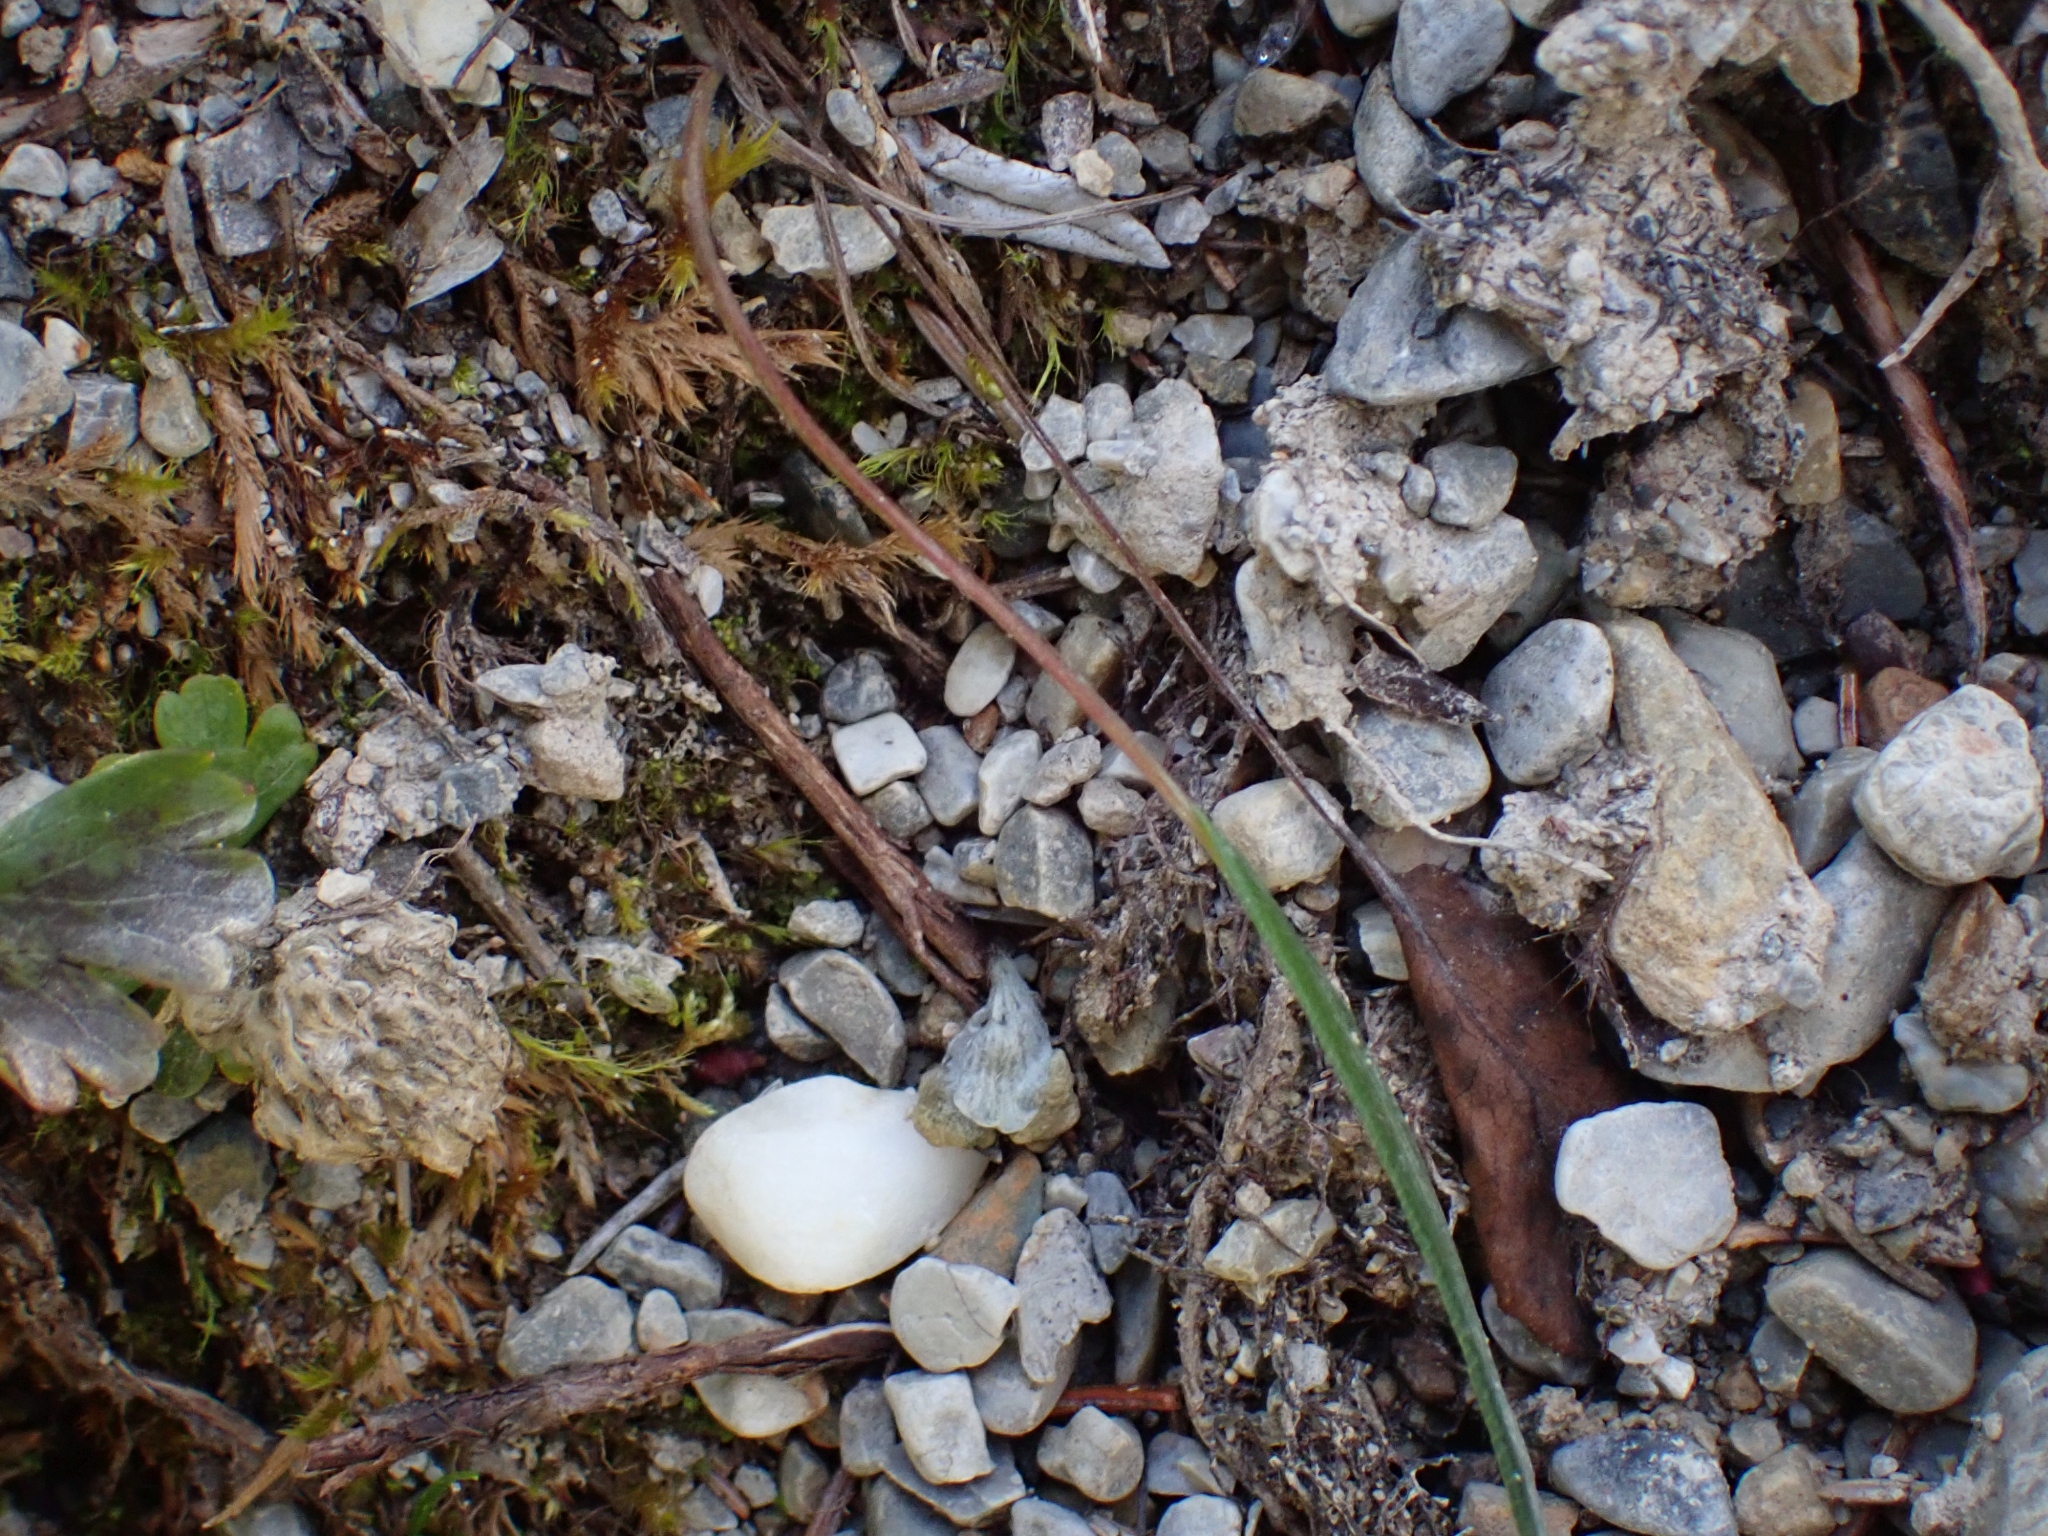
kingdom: Plantae
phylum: Tracheophyta
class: Magnoliopsida
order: Caryophyllales
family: Polygonaceae
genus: Bistorta
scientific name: Bistorta vivipara
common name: Alpine bistort
